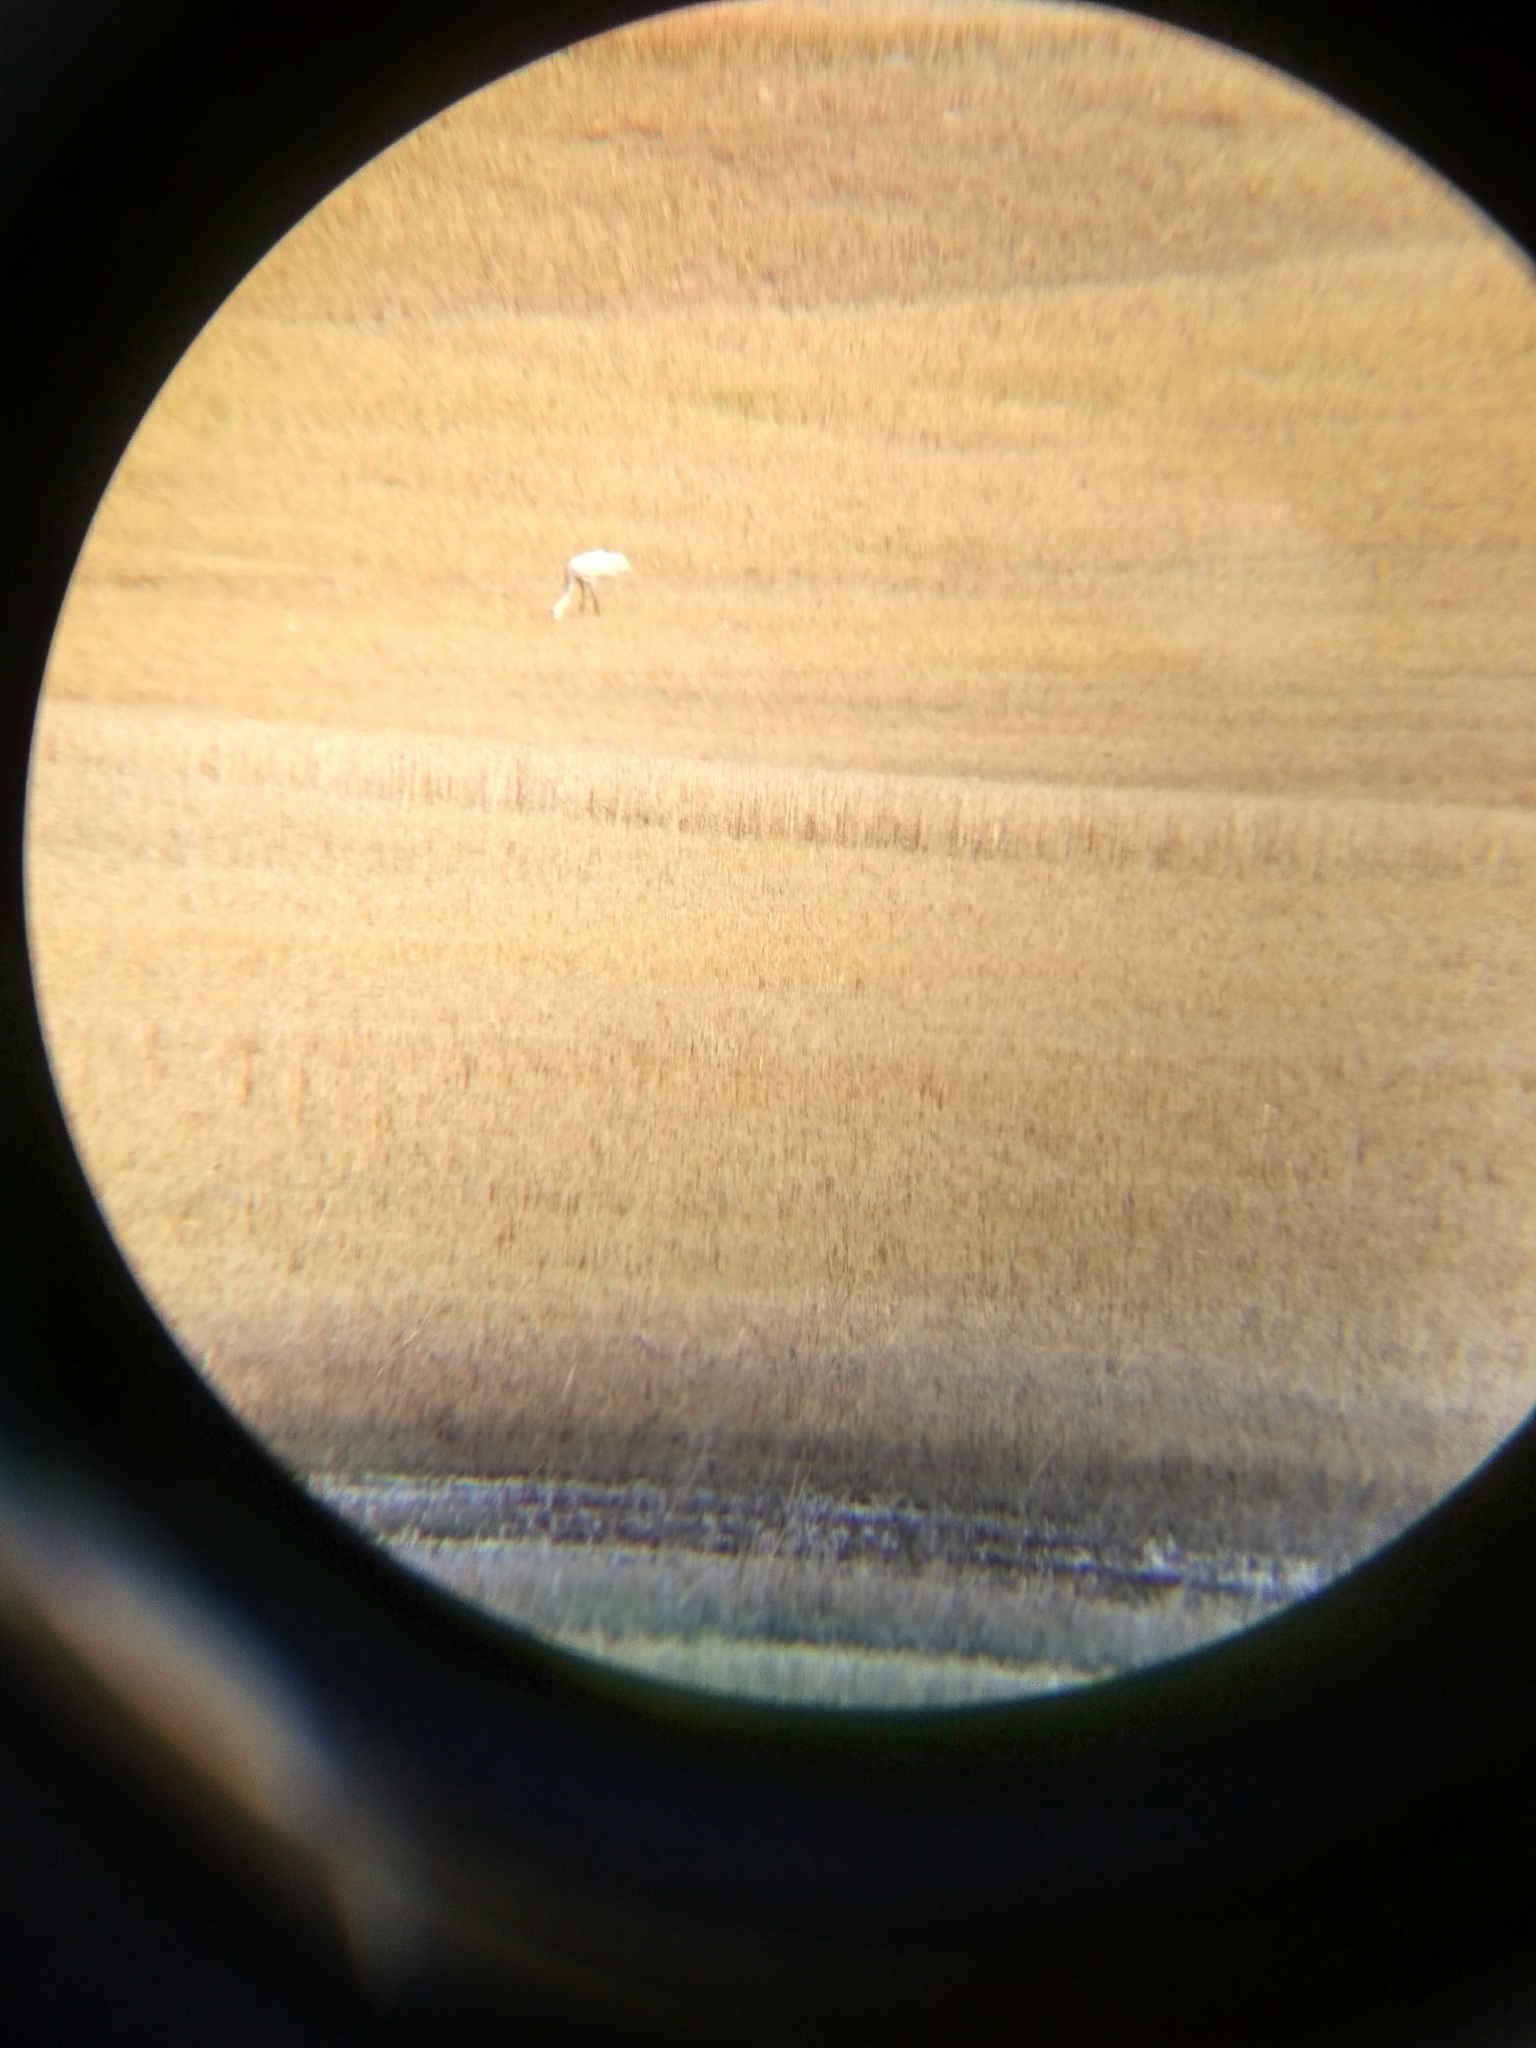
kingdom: Animalia
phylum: Chordata
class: Aves
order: Gruiformes
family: Gruidae
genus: Grus
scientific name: Grus americana
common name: Whooping crane
